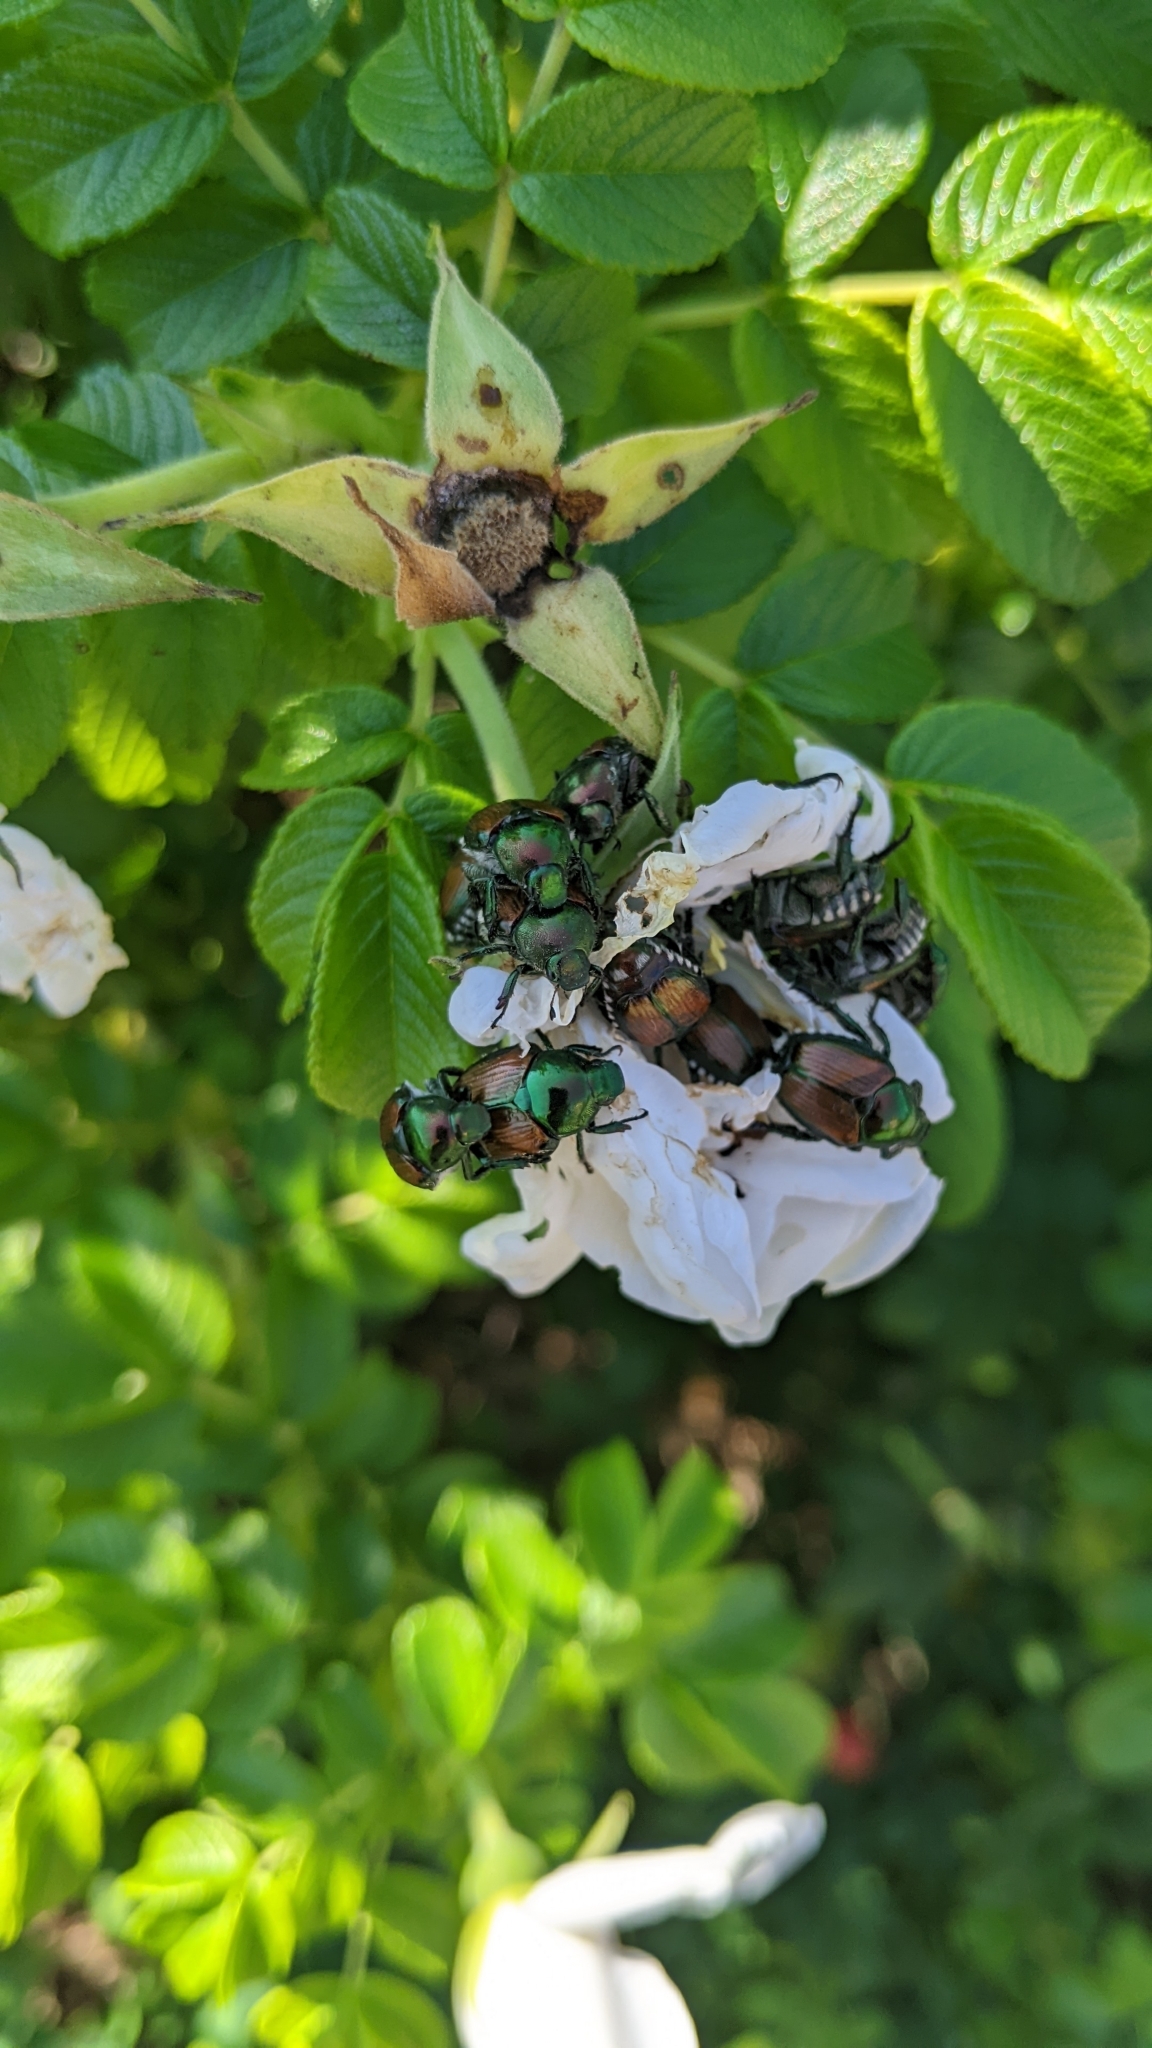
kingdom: Animalia
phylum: Arthropoda
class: Insecta
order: Coleoptera
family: Scarabaeidae
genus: Popillia
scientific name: Popillia japonica
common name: Japanese beetle
